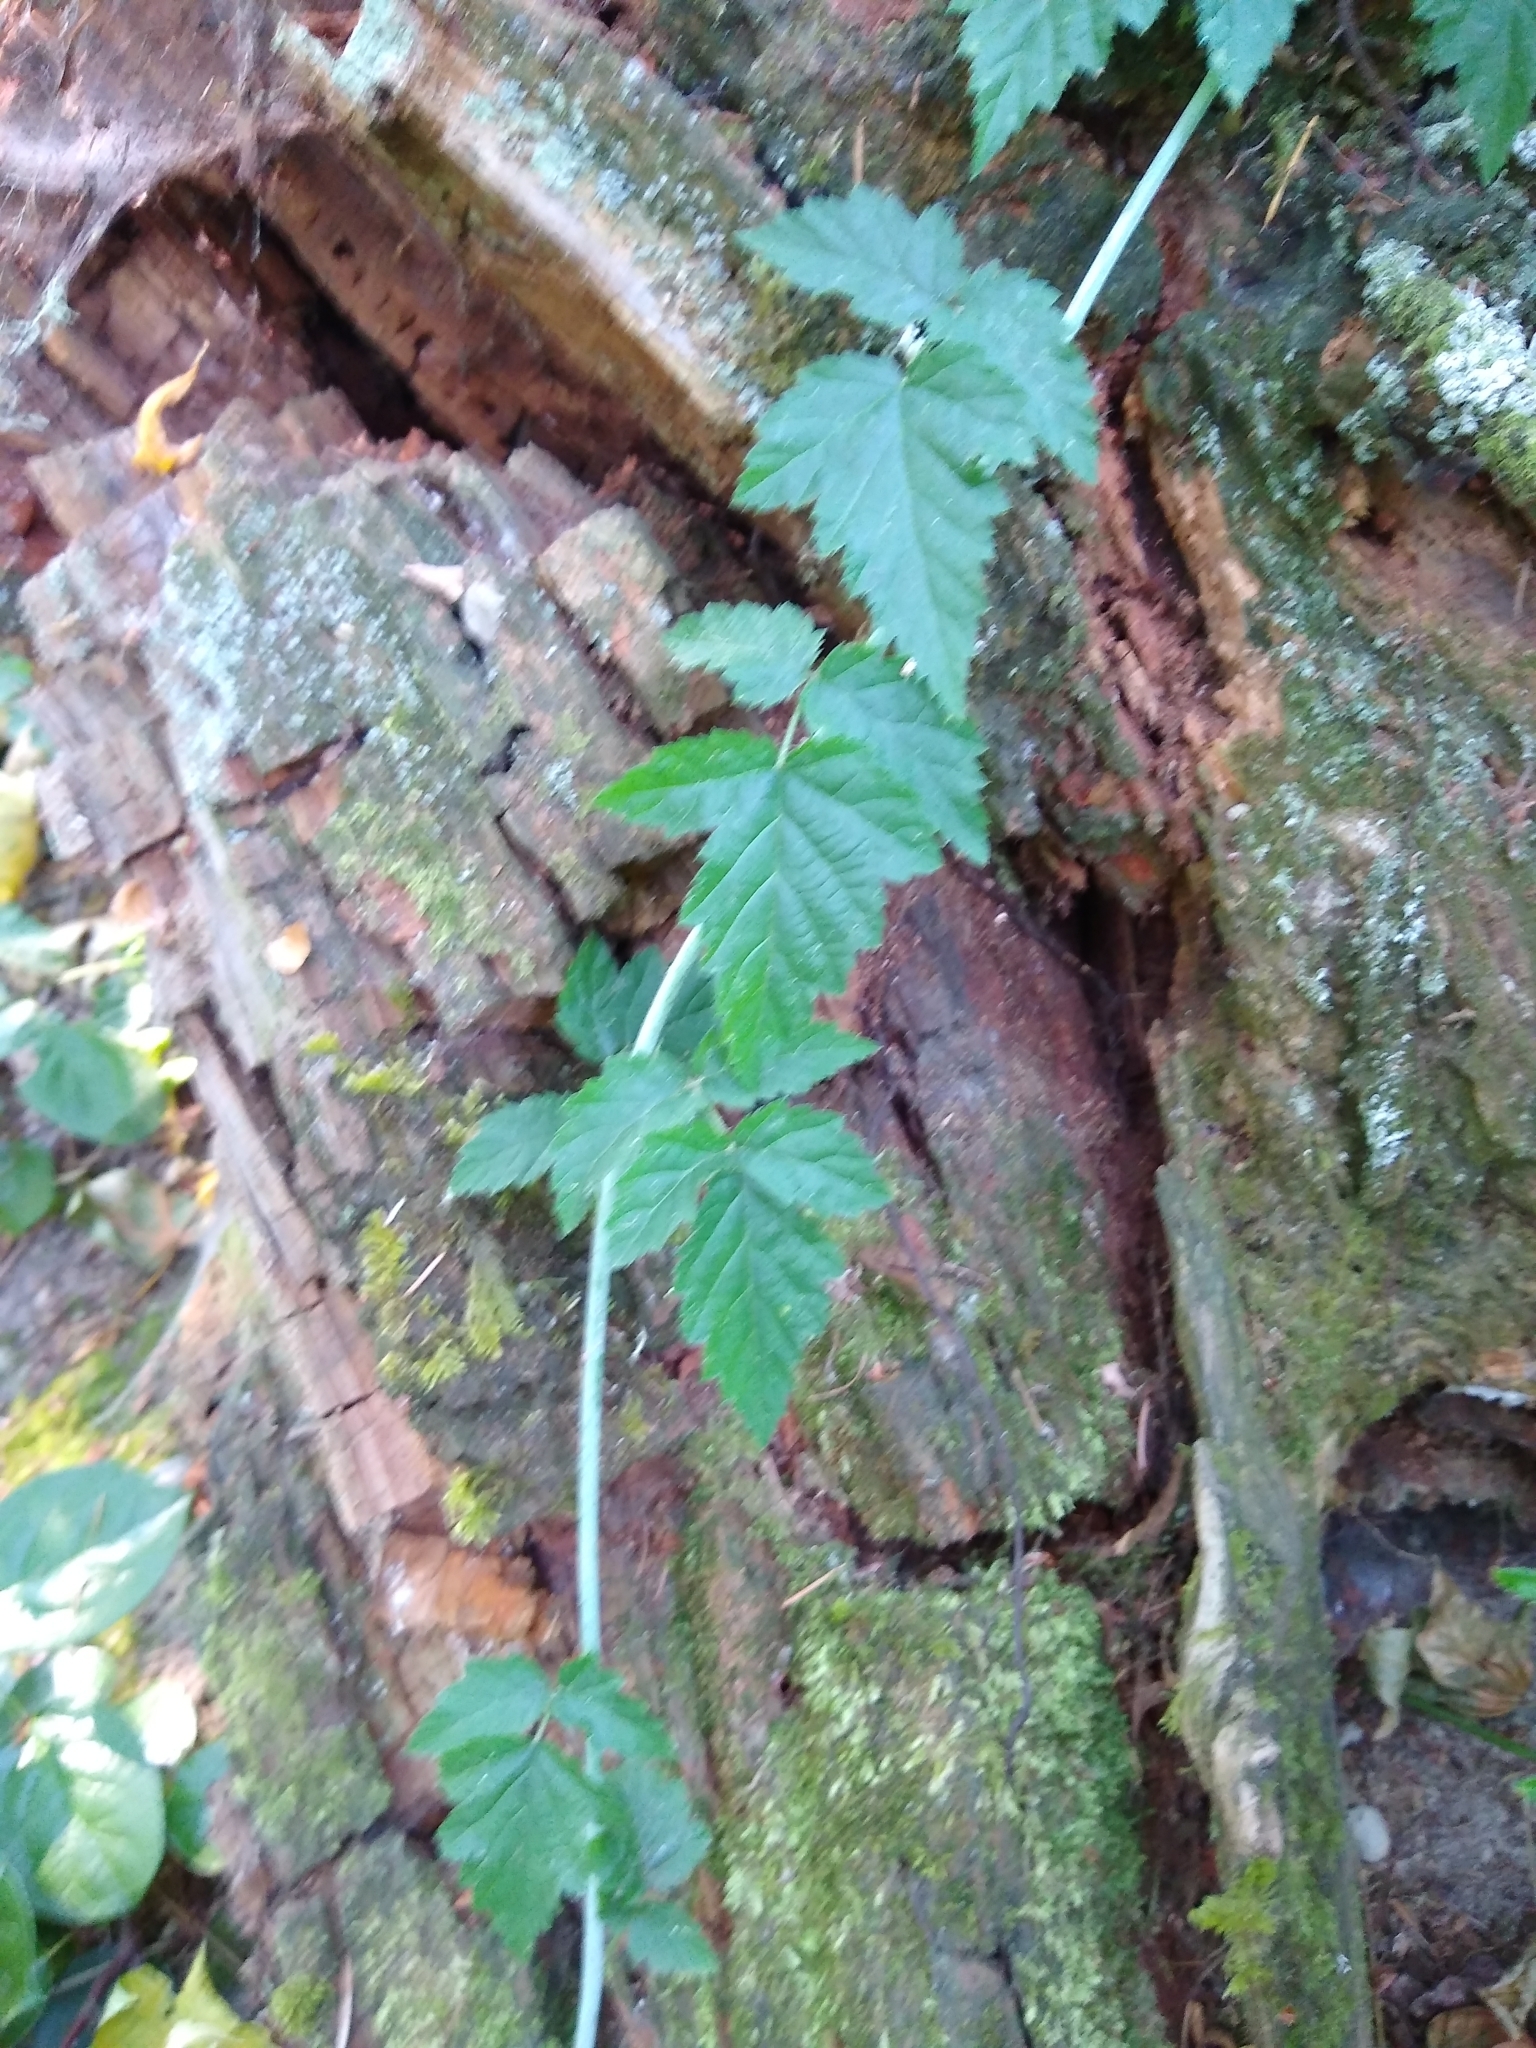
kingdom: Plantae
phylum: Tracheophyta
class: Magnoliopsida
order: Rosales
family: Rosaceae
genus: Rubus
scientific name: Rubus ursinus
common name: Pacific blackberry
